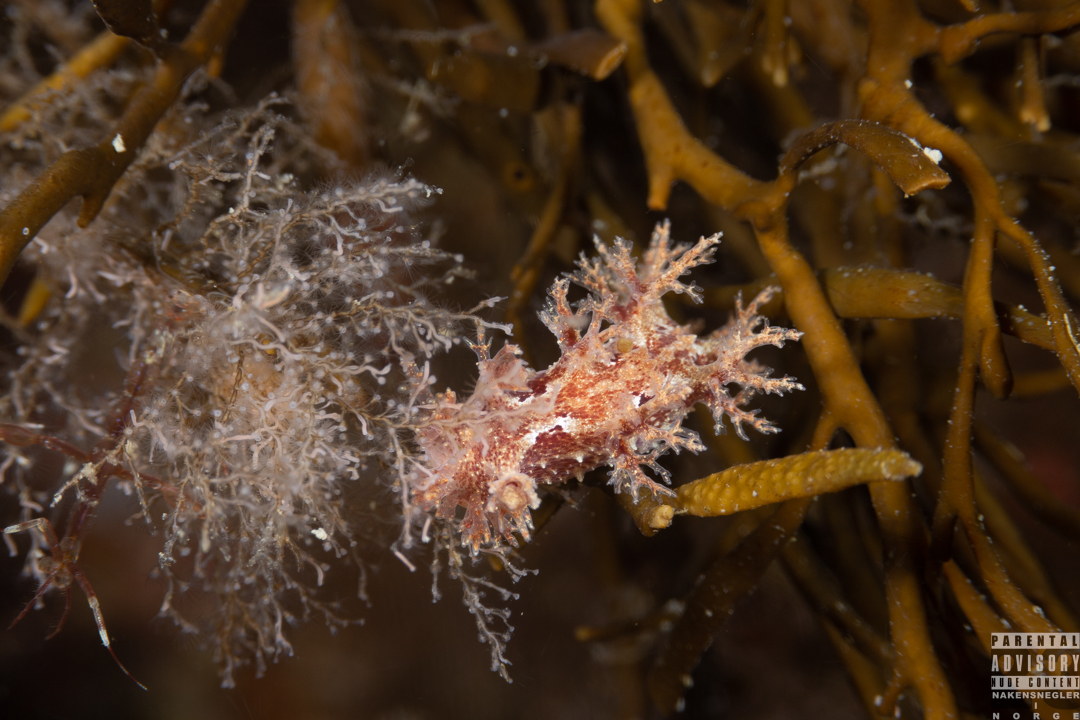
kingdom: Animalia
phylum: Mollusca
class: Gastropoda
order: Nudibranchia
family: Dendronotidae
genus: Dendronotus
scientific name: Dendronotus frondosus
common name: Bushy-backed nudibranch
